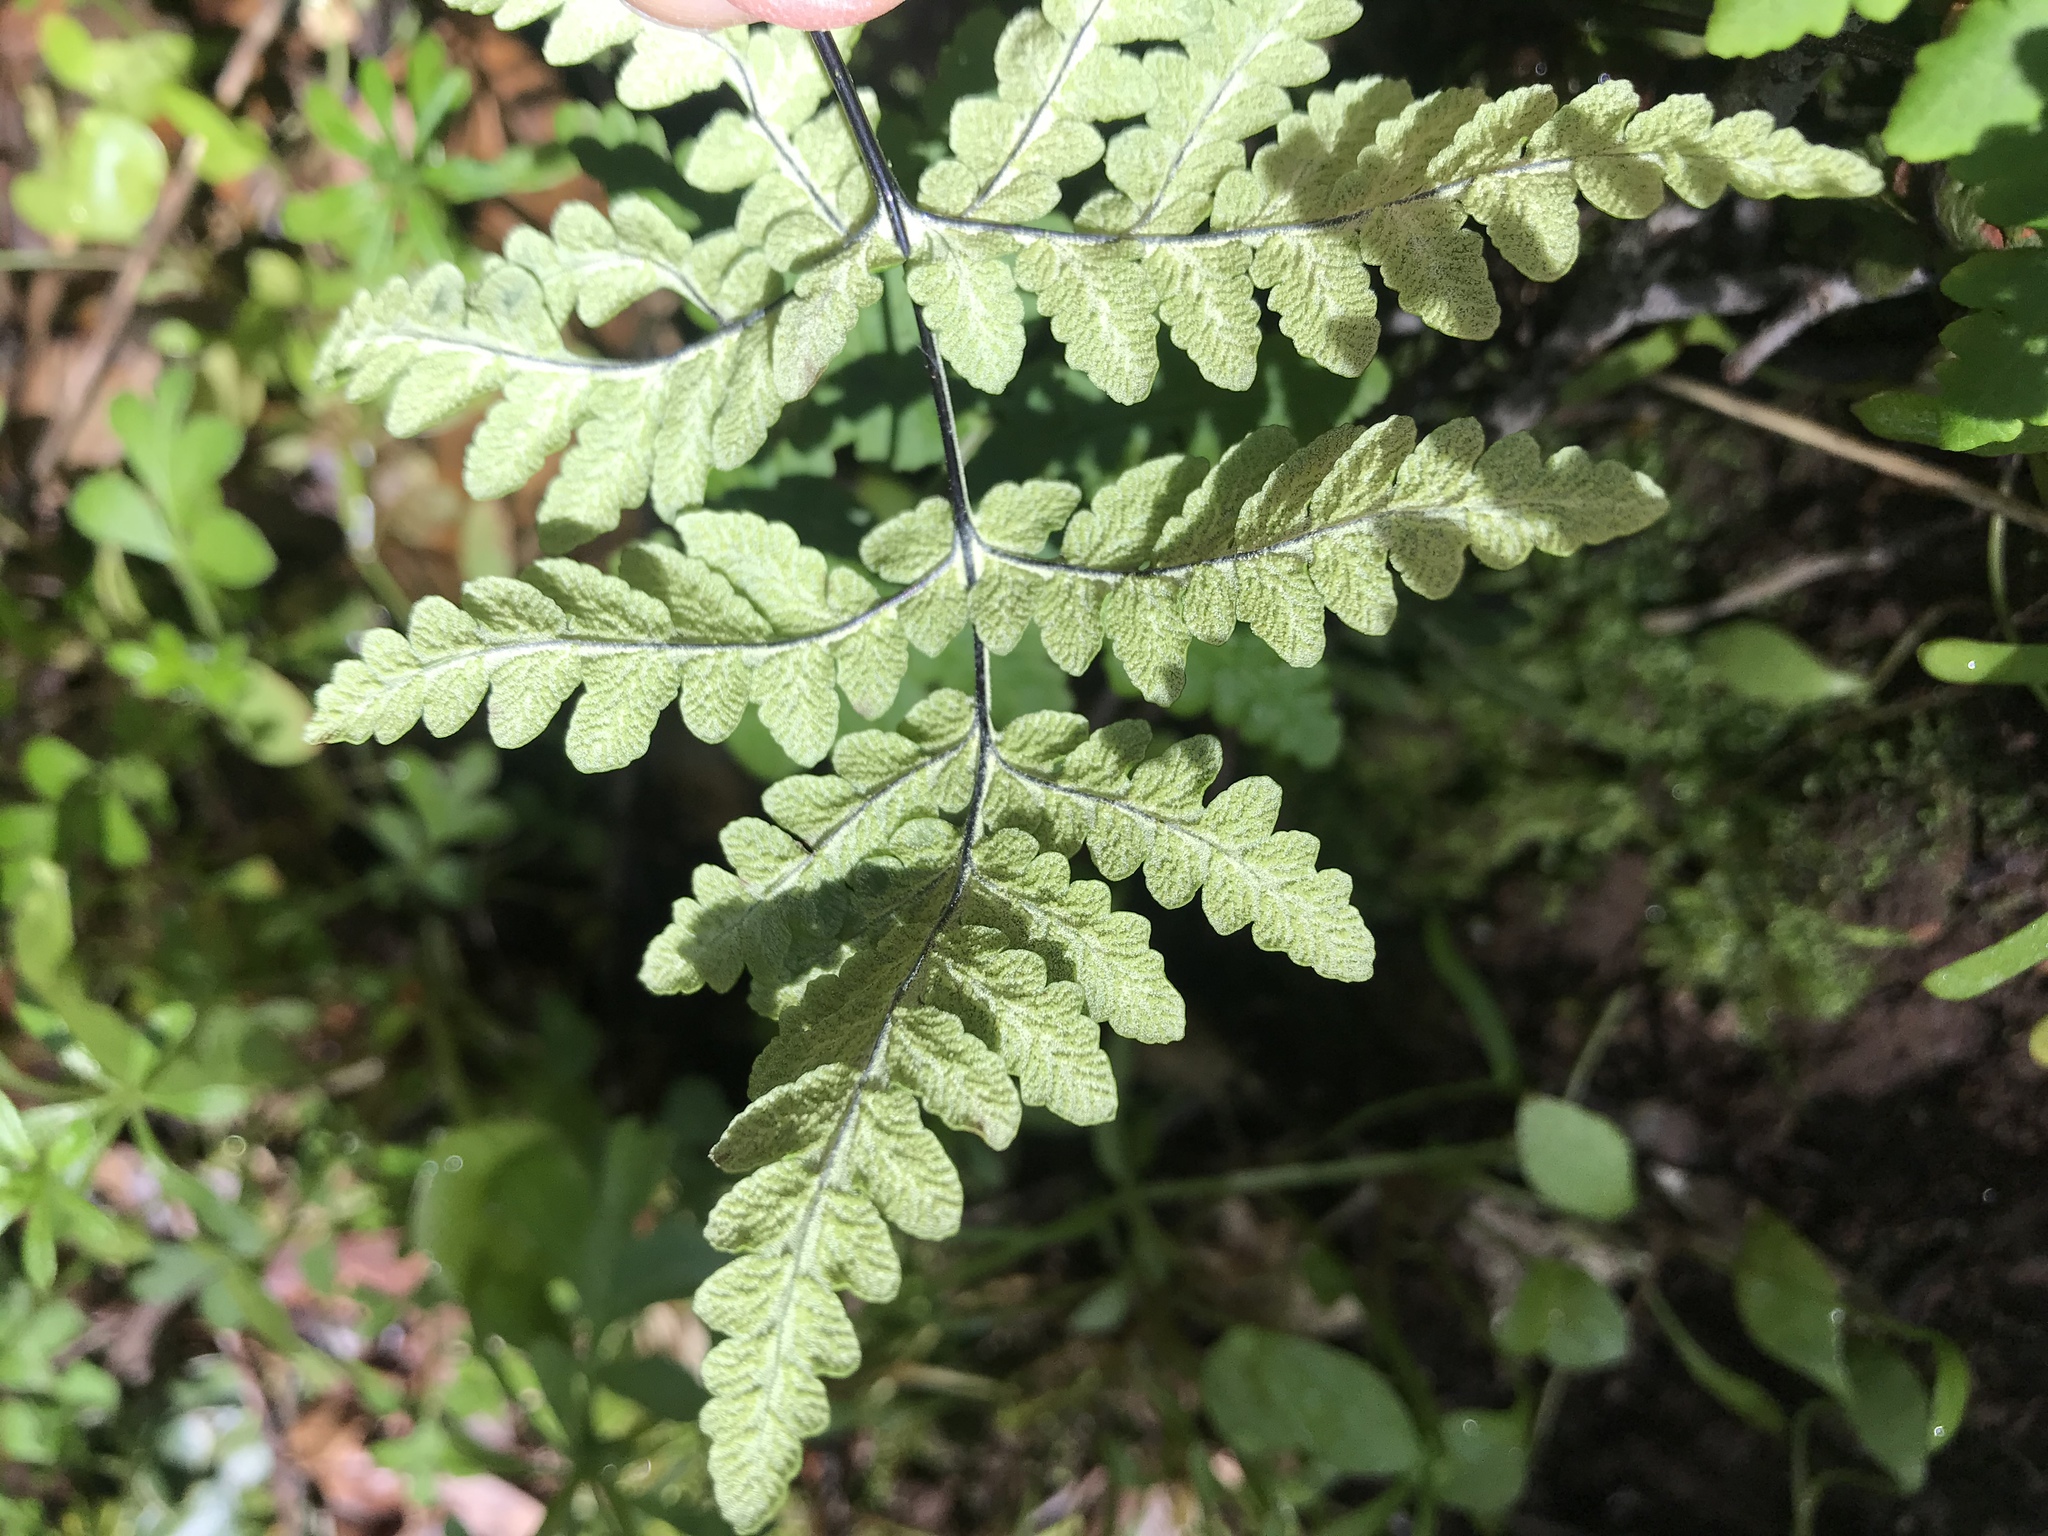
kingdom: Plantae
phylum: Tracheophyta
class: Polypodiopsida
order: Polypodiales
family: Pteridaceae
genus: Pentagramma
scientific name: Pentagramma triangularis
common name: Gold fern
